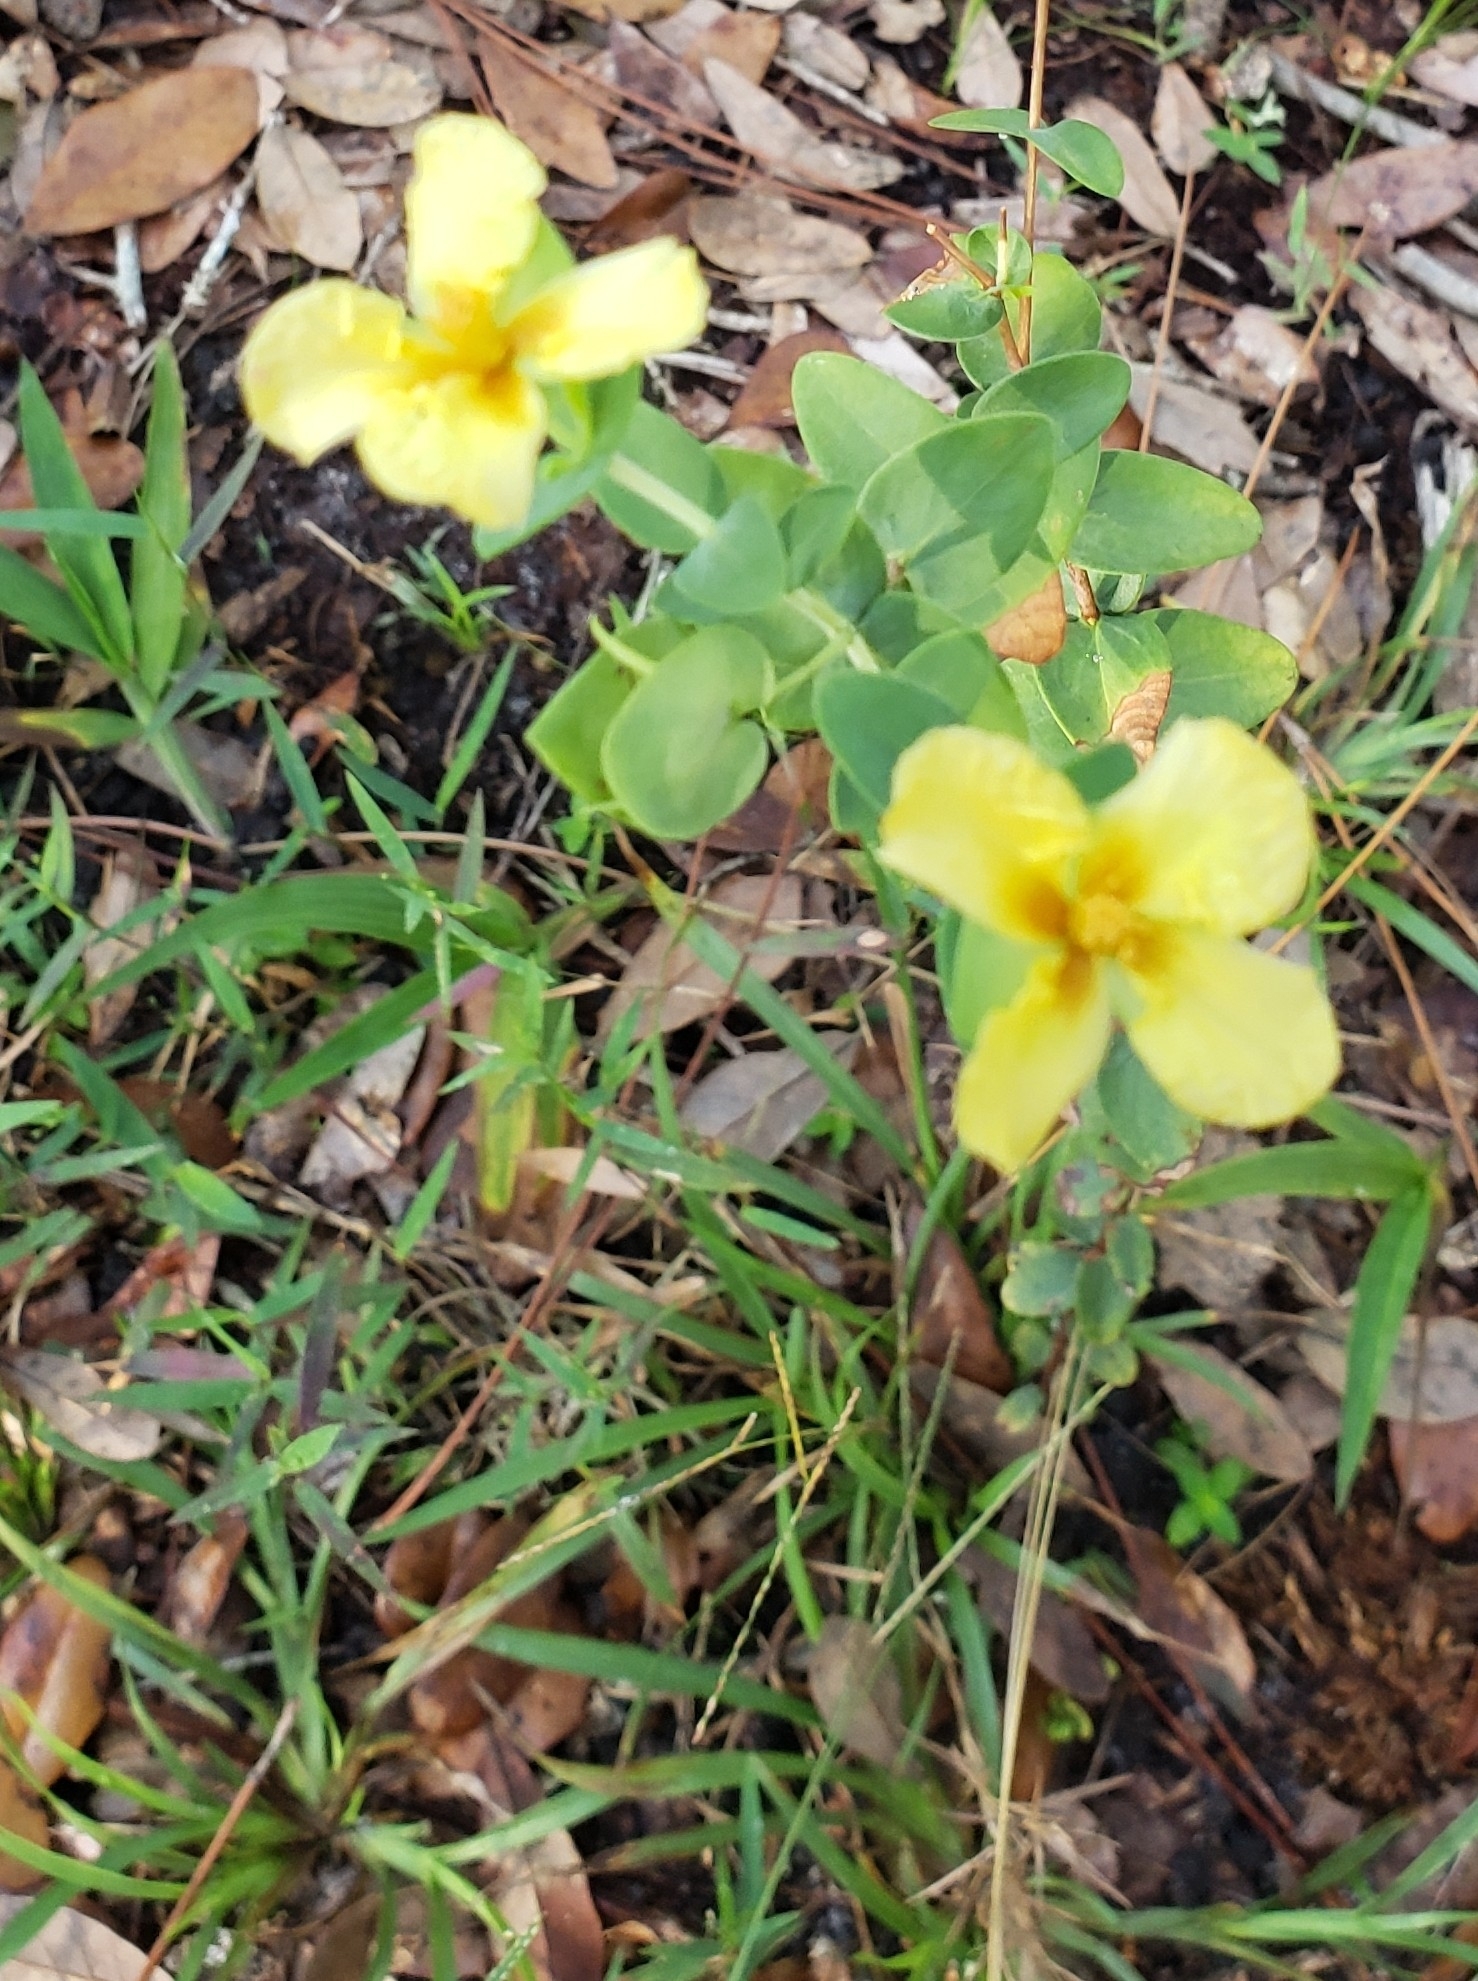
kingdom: Plantae
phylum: Tracheophyta
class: Magnoliopsida
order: Malpighiales
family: Hypericaceae
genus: Hypericum
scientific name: Hypericum tetrapetalum
